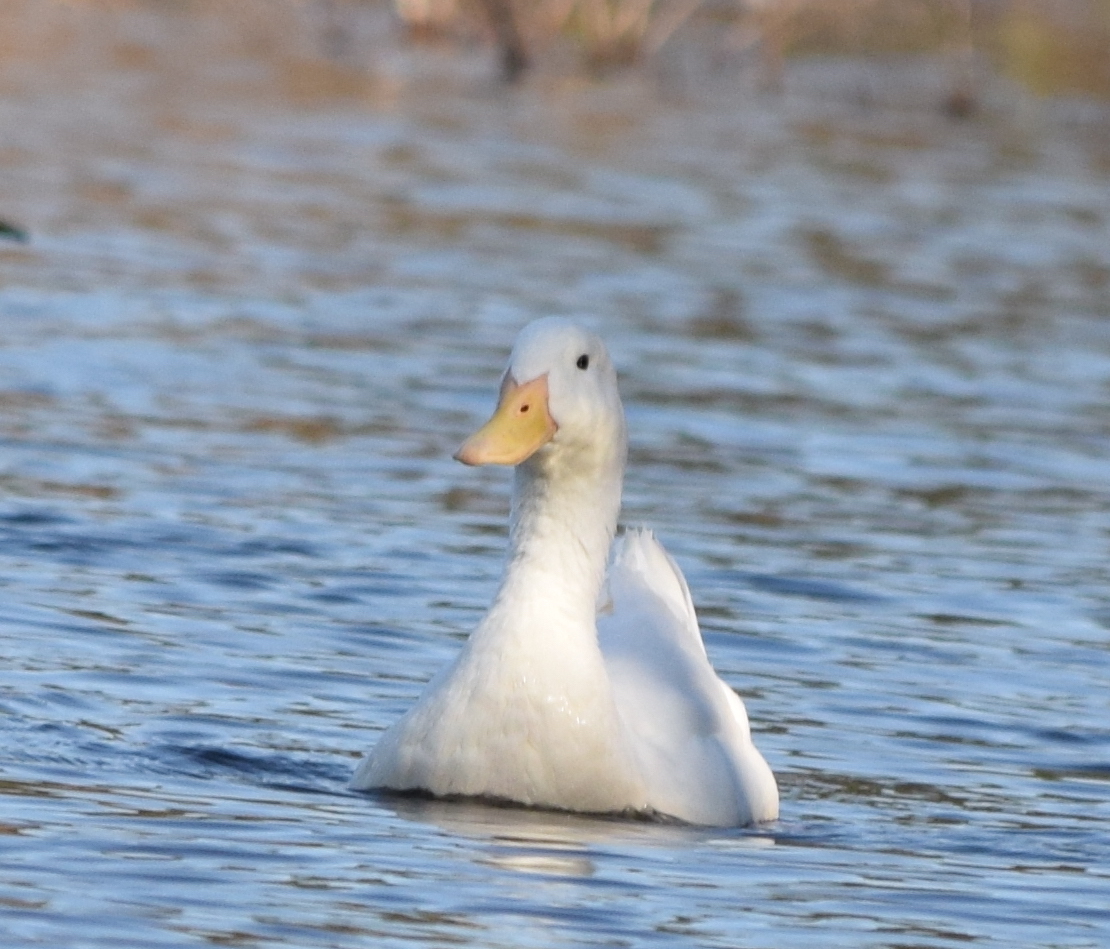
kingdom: Animalia
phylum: Chordata
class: Aves
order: Anseriformes
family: Anatidae
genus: Anas
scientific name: Anas platyrhynchos
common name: Mallard
